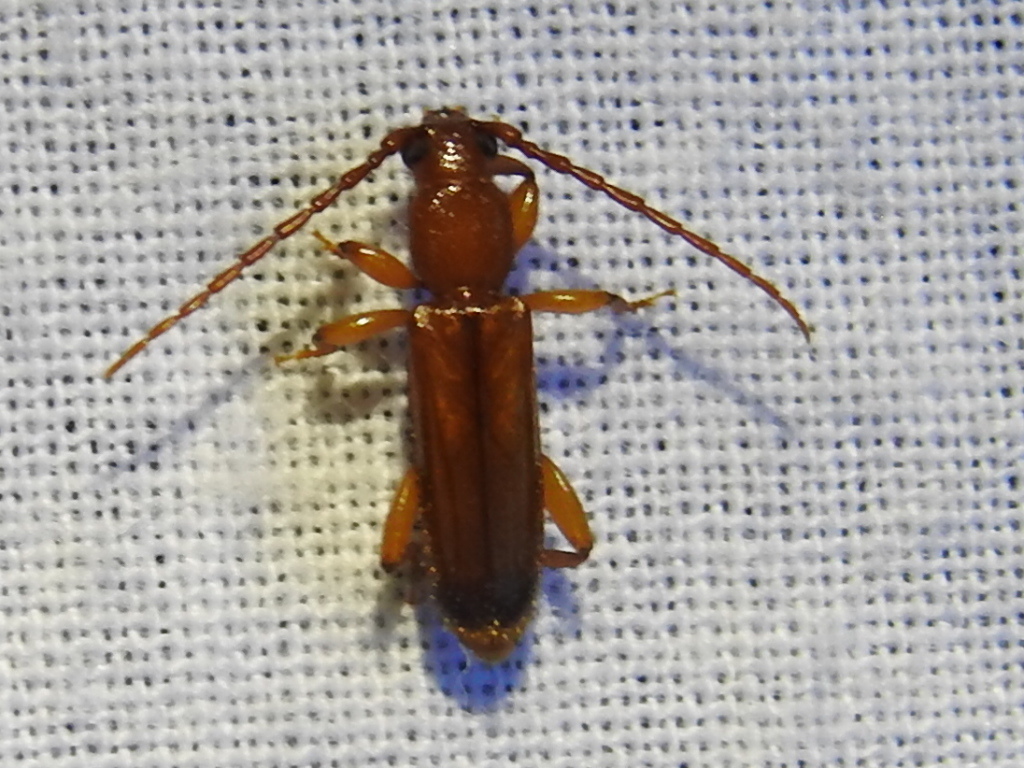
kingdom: Animalia
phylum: Arthropoda
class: Insecta
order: Coleoptera
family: Cerambycidae
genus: Smodicum
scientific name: Smodicum cucujiforme
